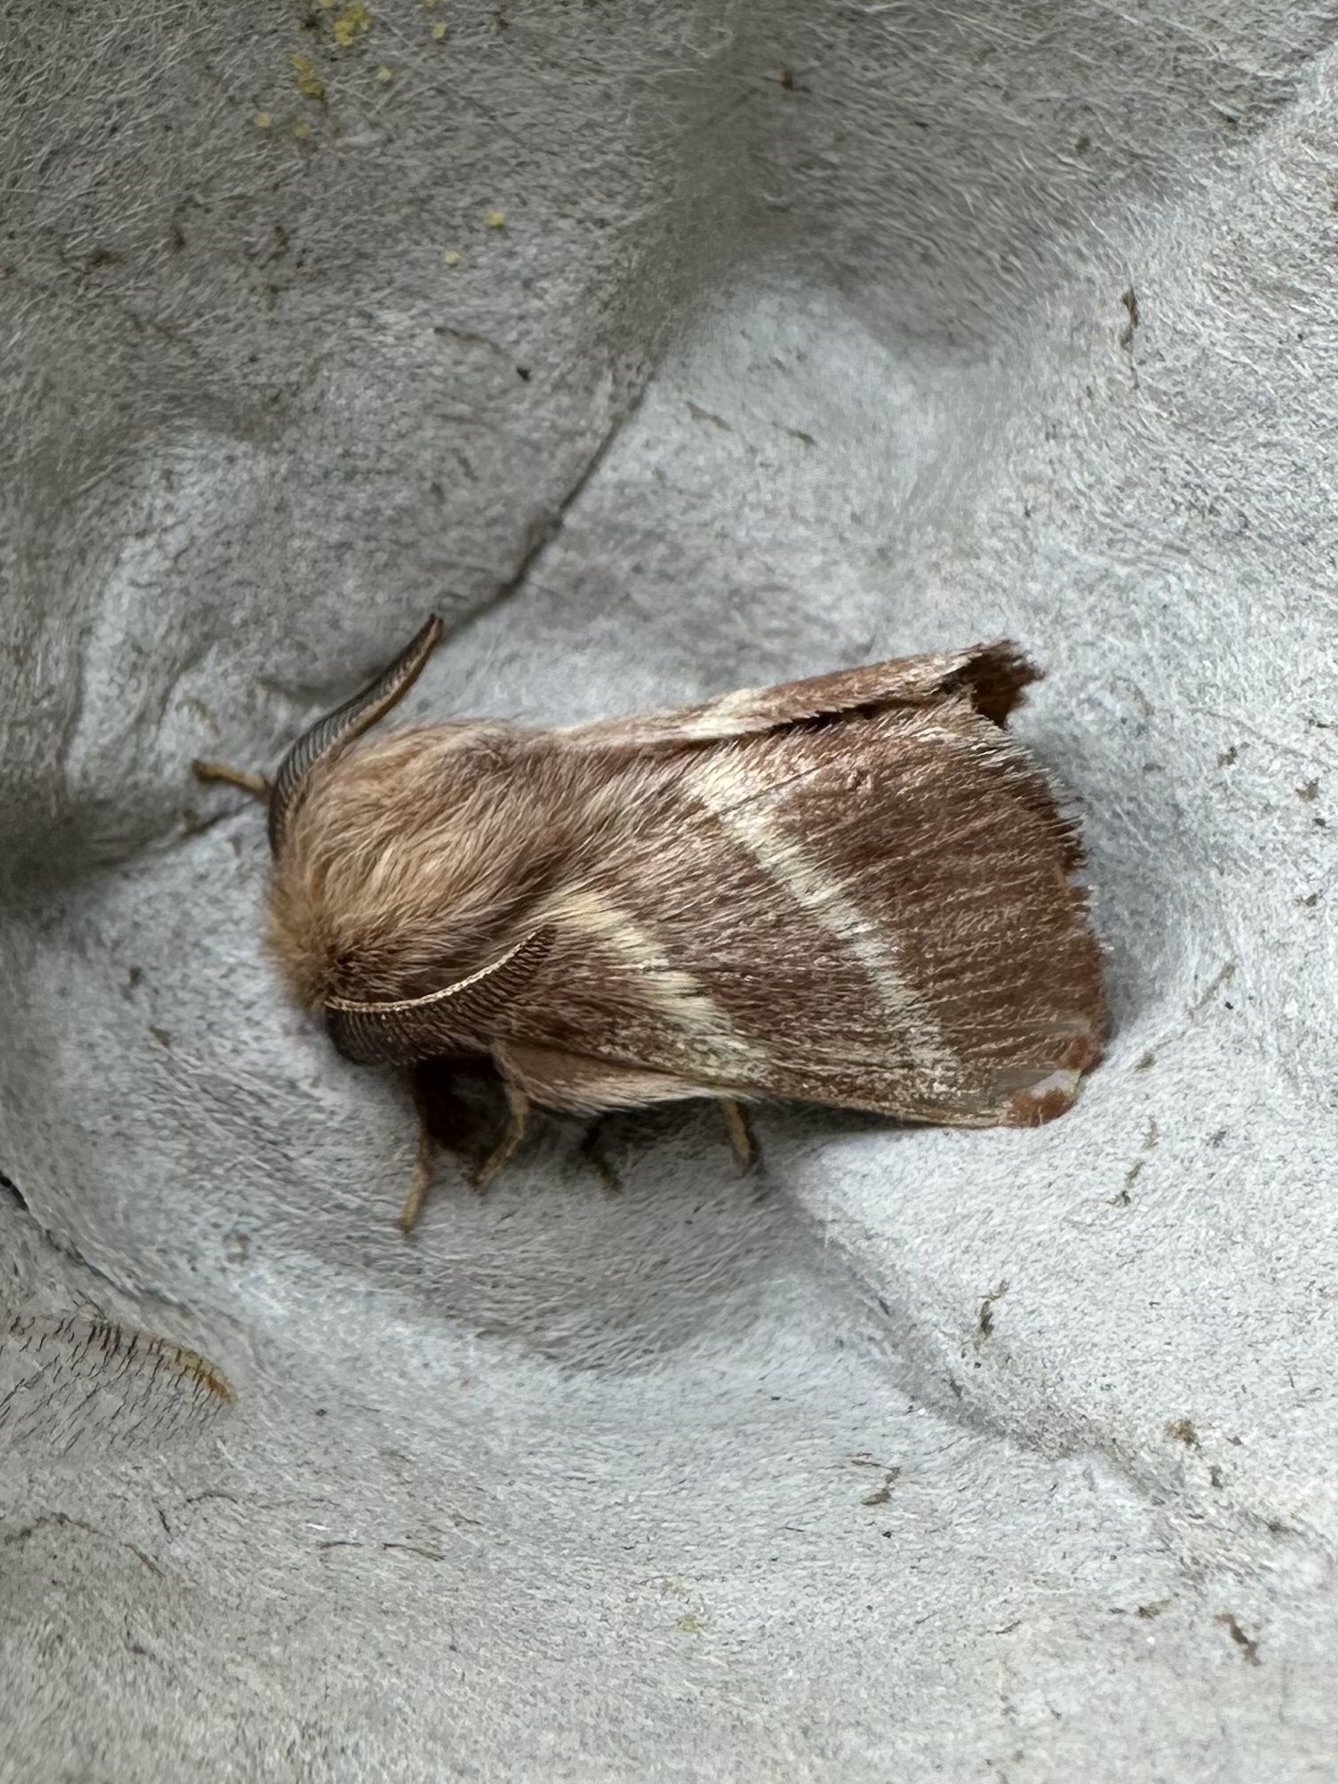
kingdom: Animalia
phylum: Arthropoda
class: Insecta
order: Lepidoptera
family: Lasiocampidae
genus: Malacosoma
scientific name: Malacosoma americana
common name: Eastern tent caterpillar moth
